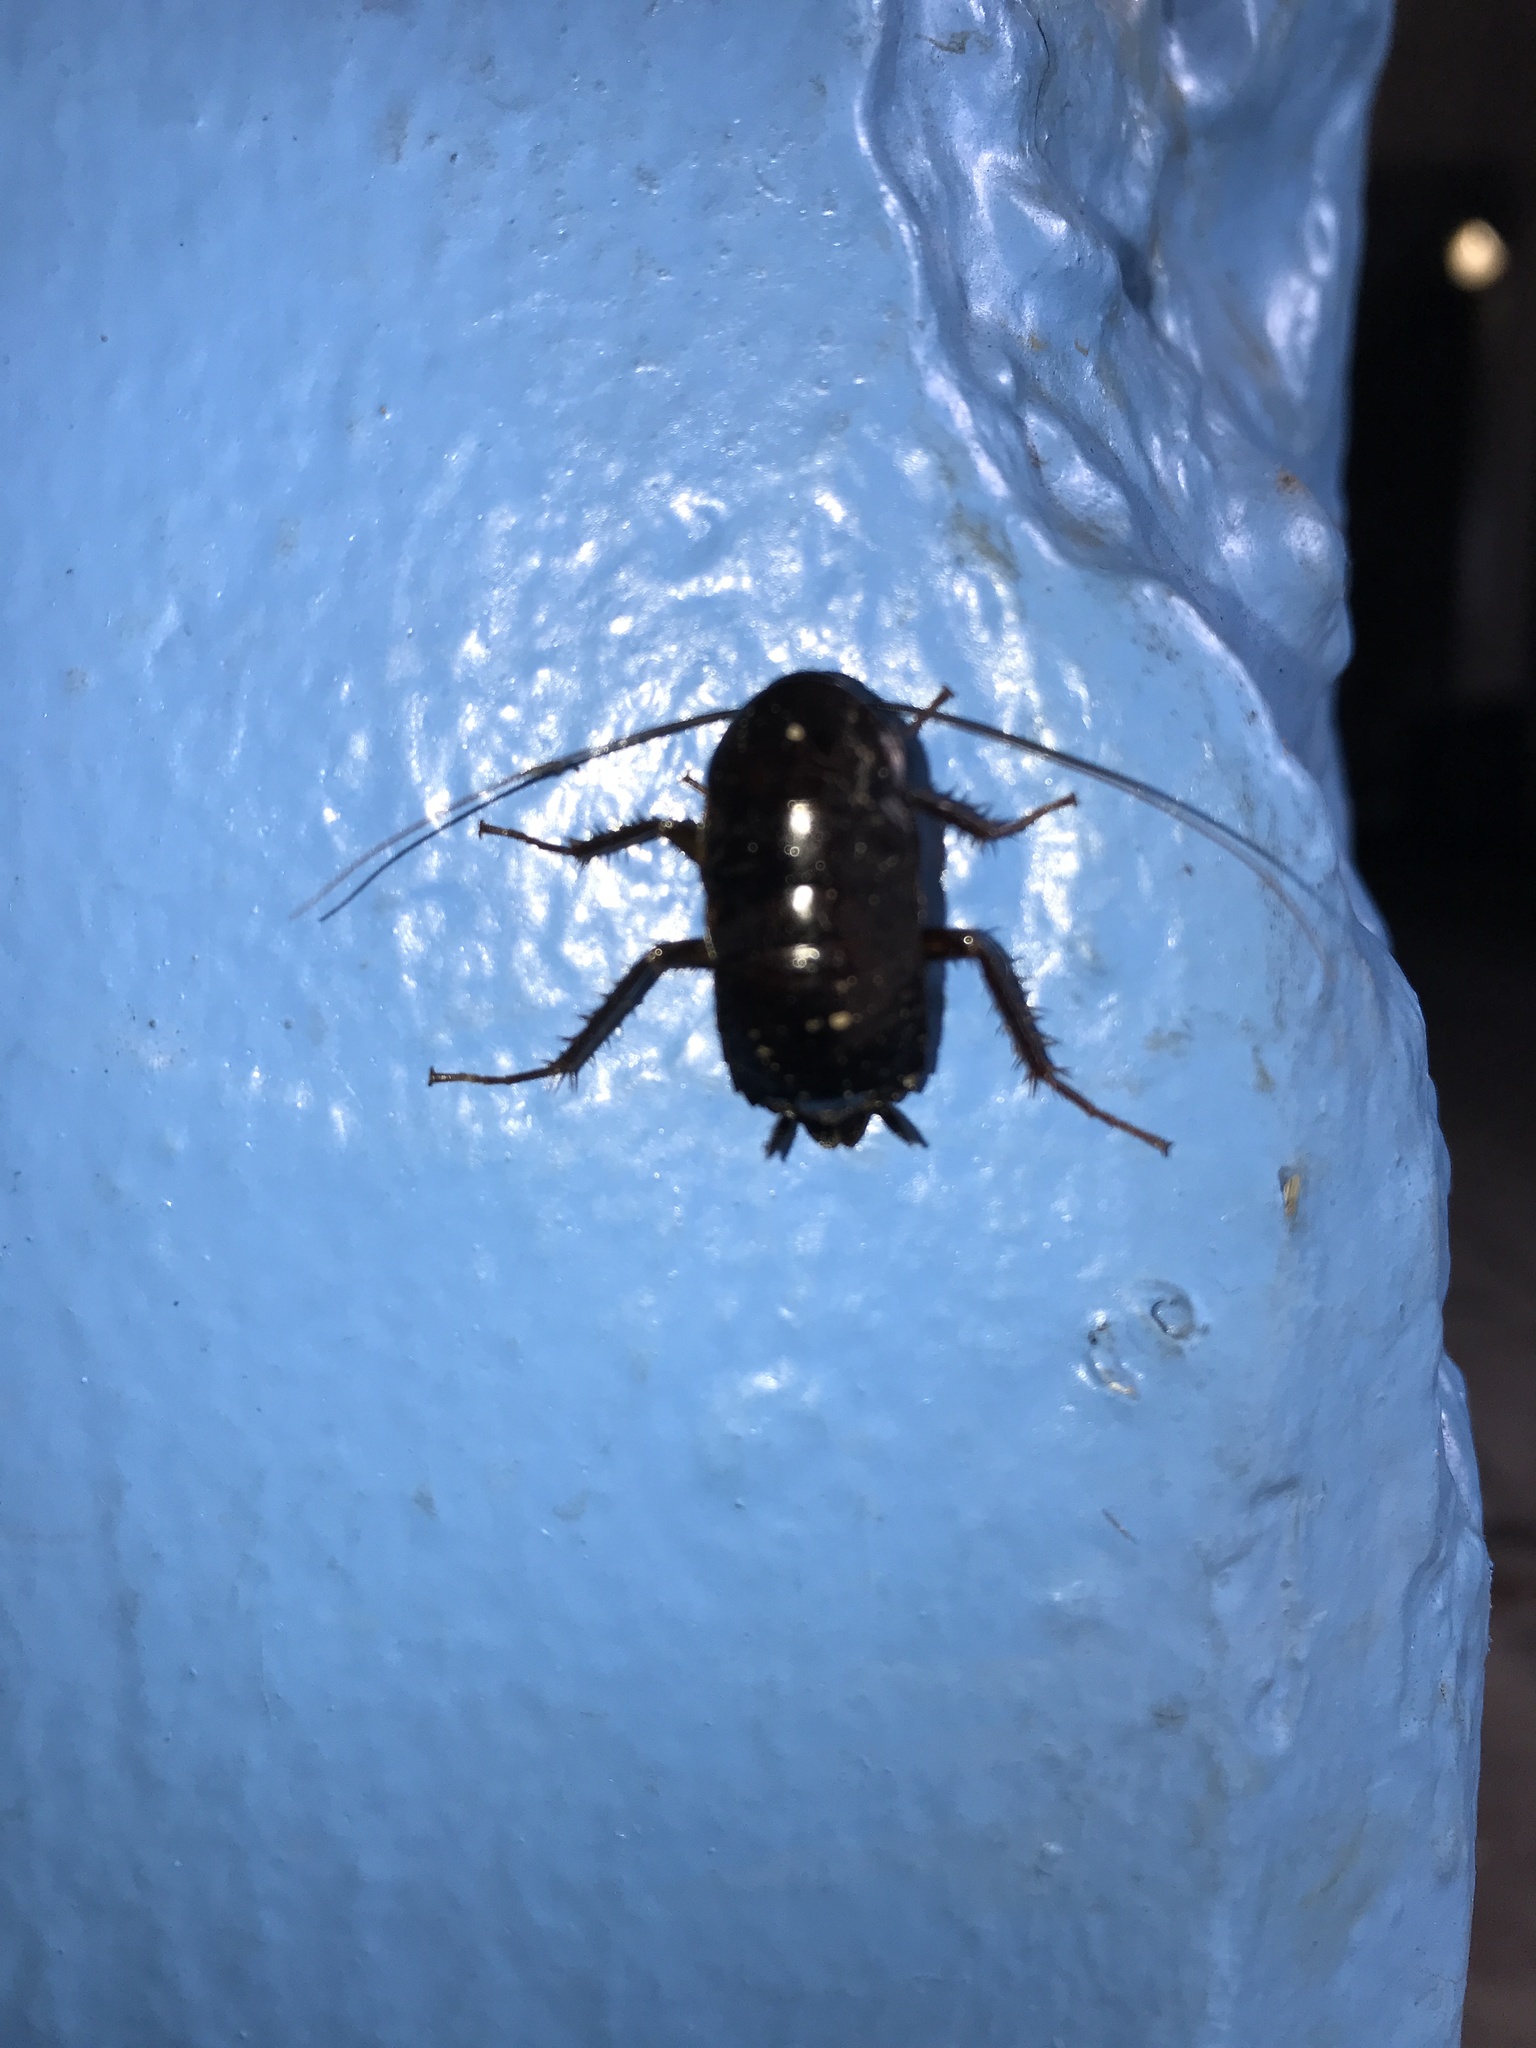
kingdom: Animalia
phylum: Arthropoda
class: Insecta
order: Blattodea
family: Blattidae
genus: Blatta
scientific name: Blatta orientalis
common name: Oriental cockroach
